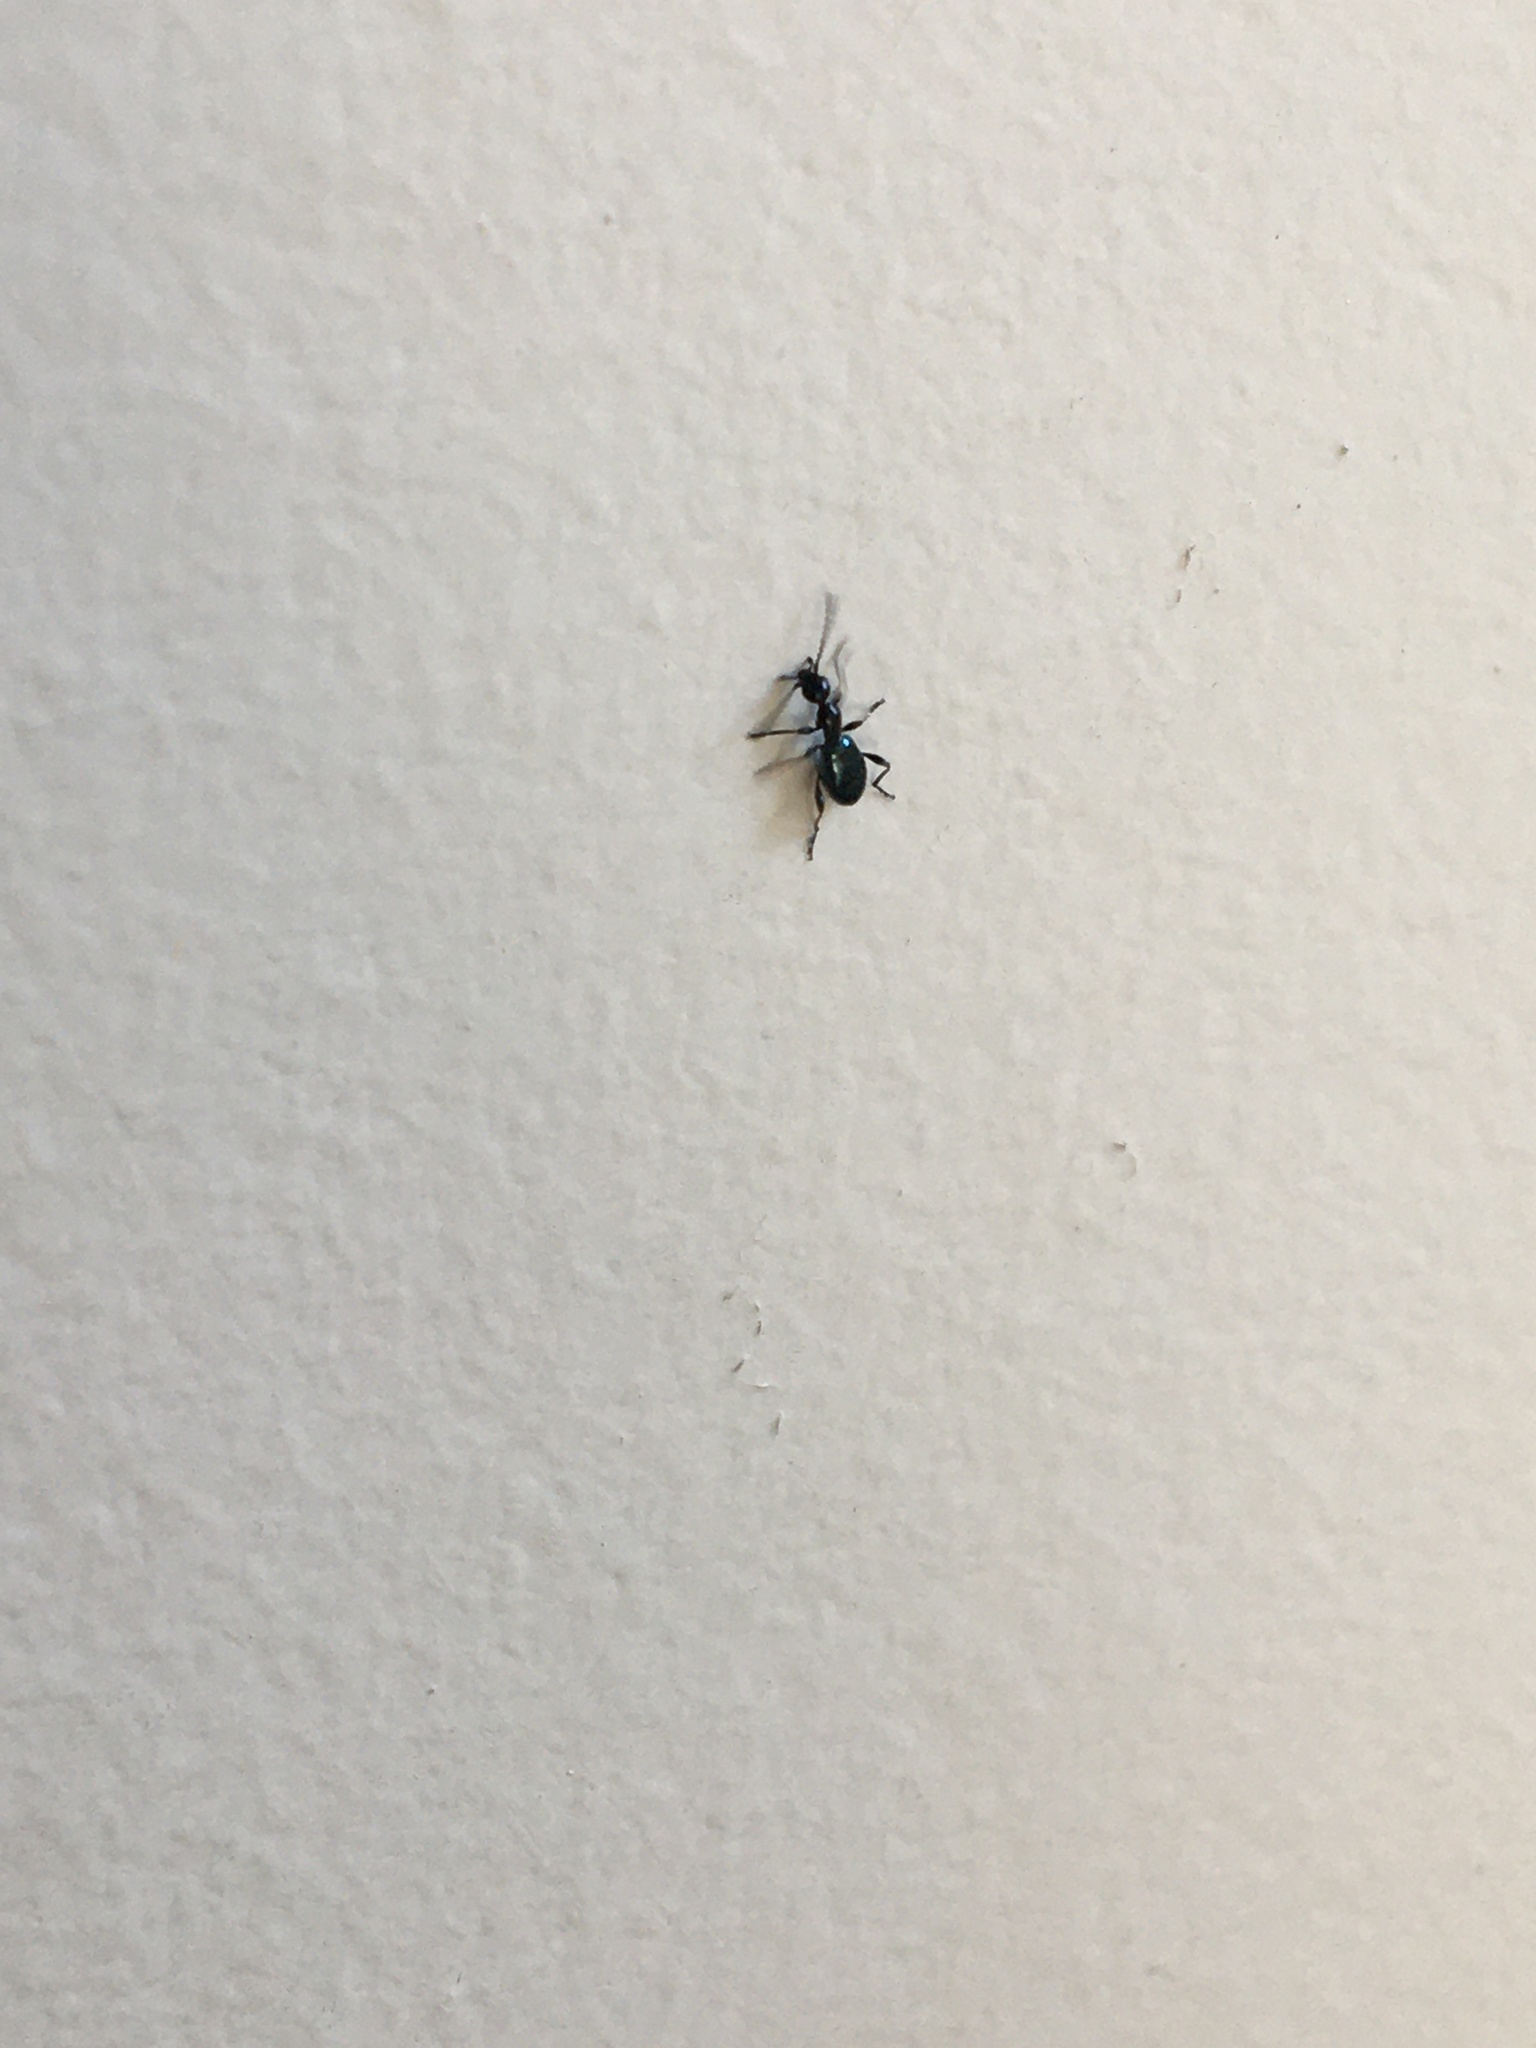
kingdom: Animalia
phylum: Arthropoda
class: Insecta
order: Coleoptera
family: Anthicidae
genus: Anthelephila
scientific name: Anthelephila
